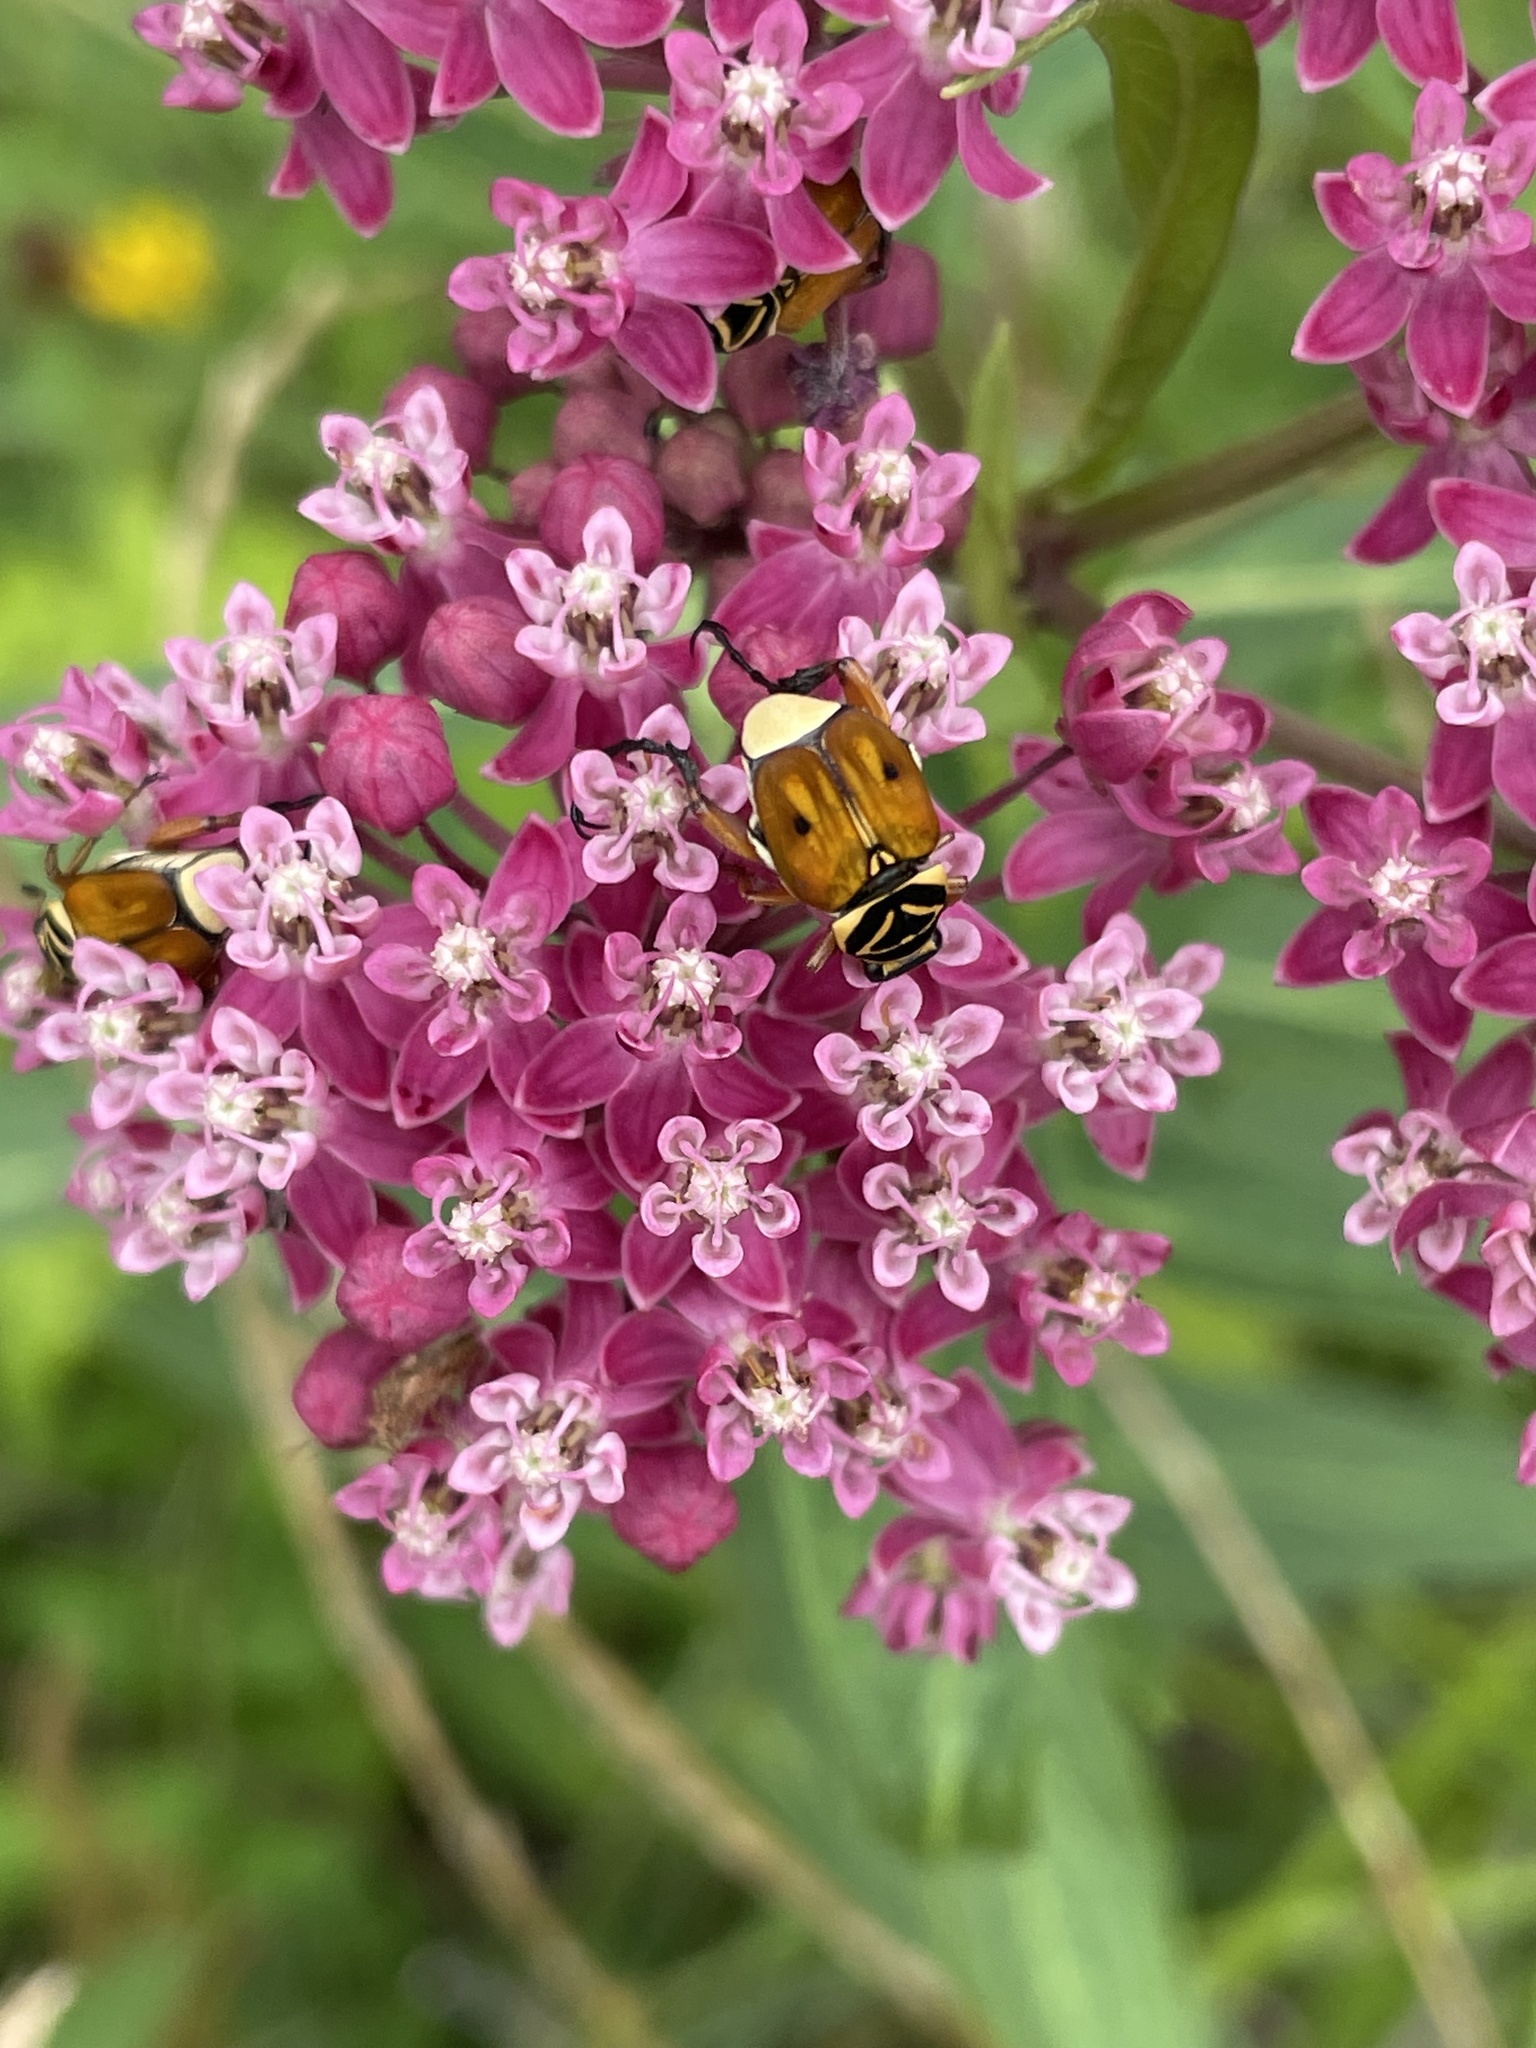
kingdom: Animalia
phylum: Arthropoda
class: Insecta
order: Coleoptera
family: Scarabaeidae
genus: Trigonopeltastes
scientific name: Trigonopeltastes delta
